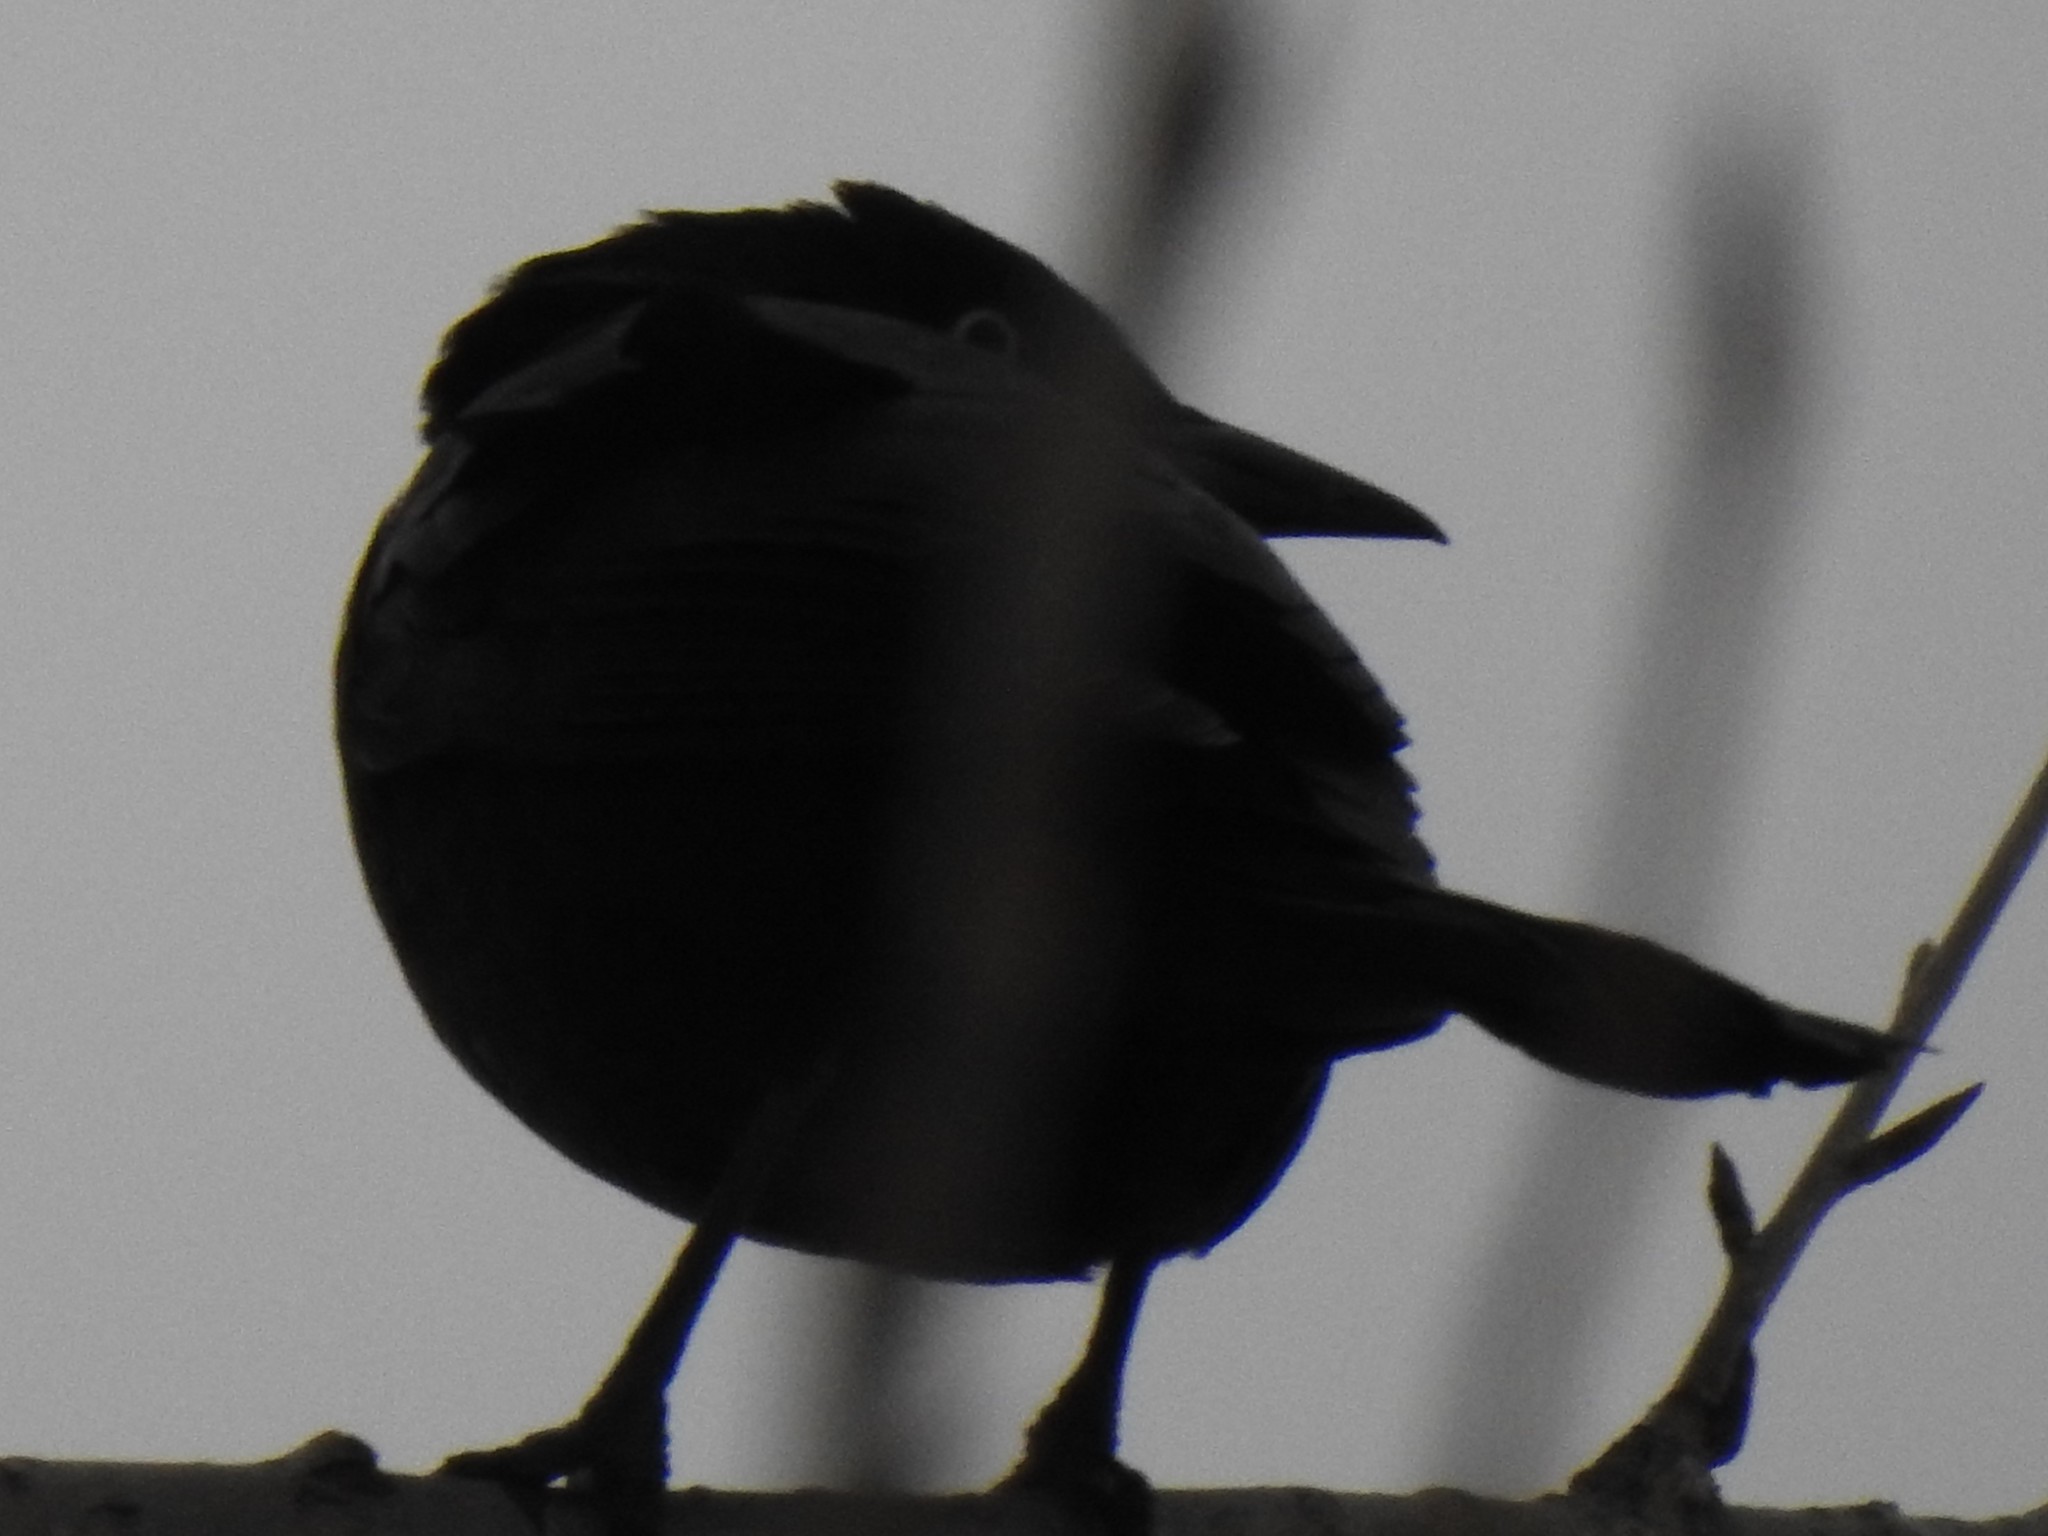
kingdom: Animalia
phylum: Chordata
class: Aves
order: Passeriformes
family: Icteridae
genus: Quiscalus
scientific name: Quiscalus quiscula
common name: Common grackle
